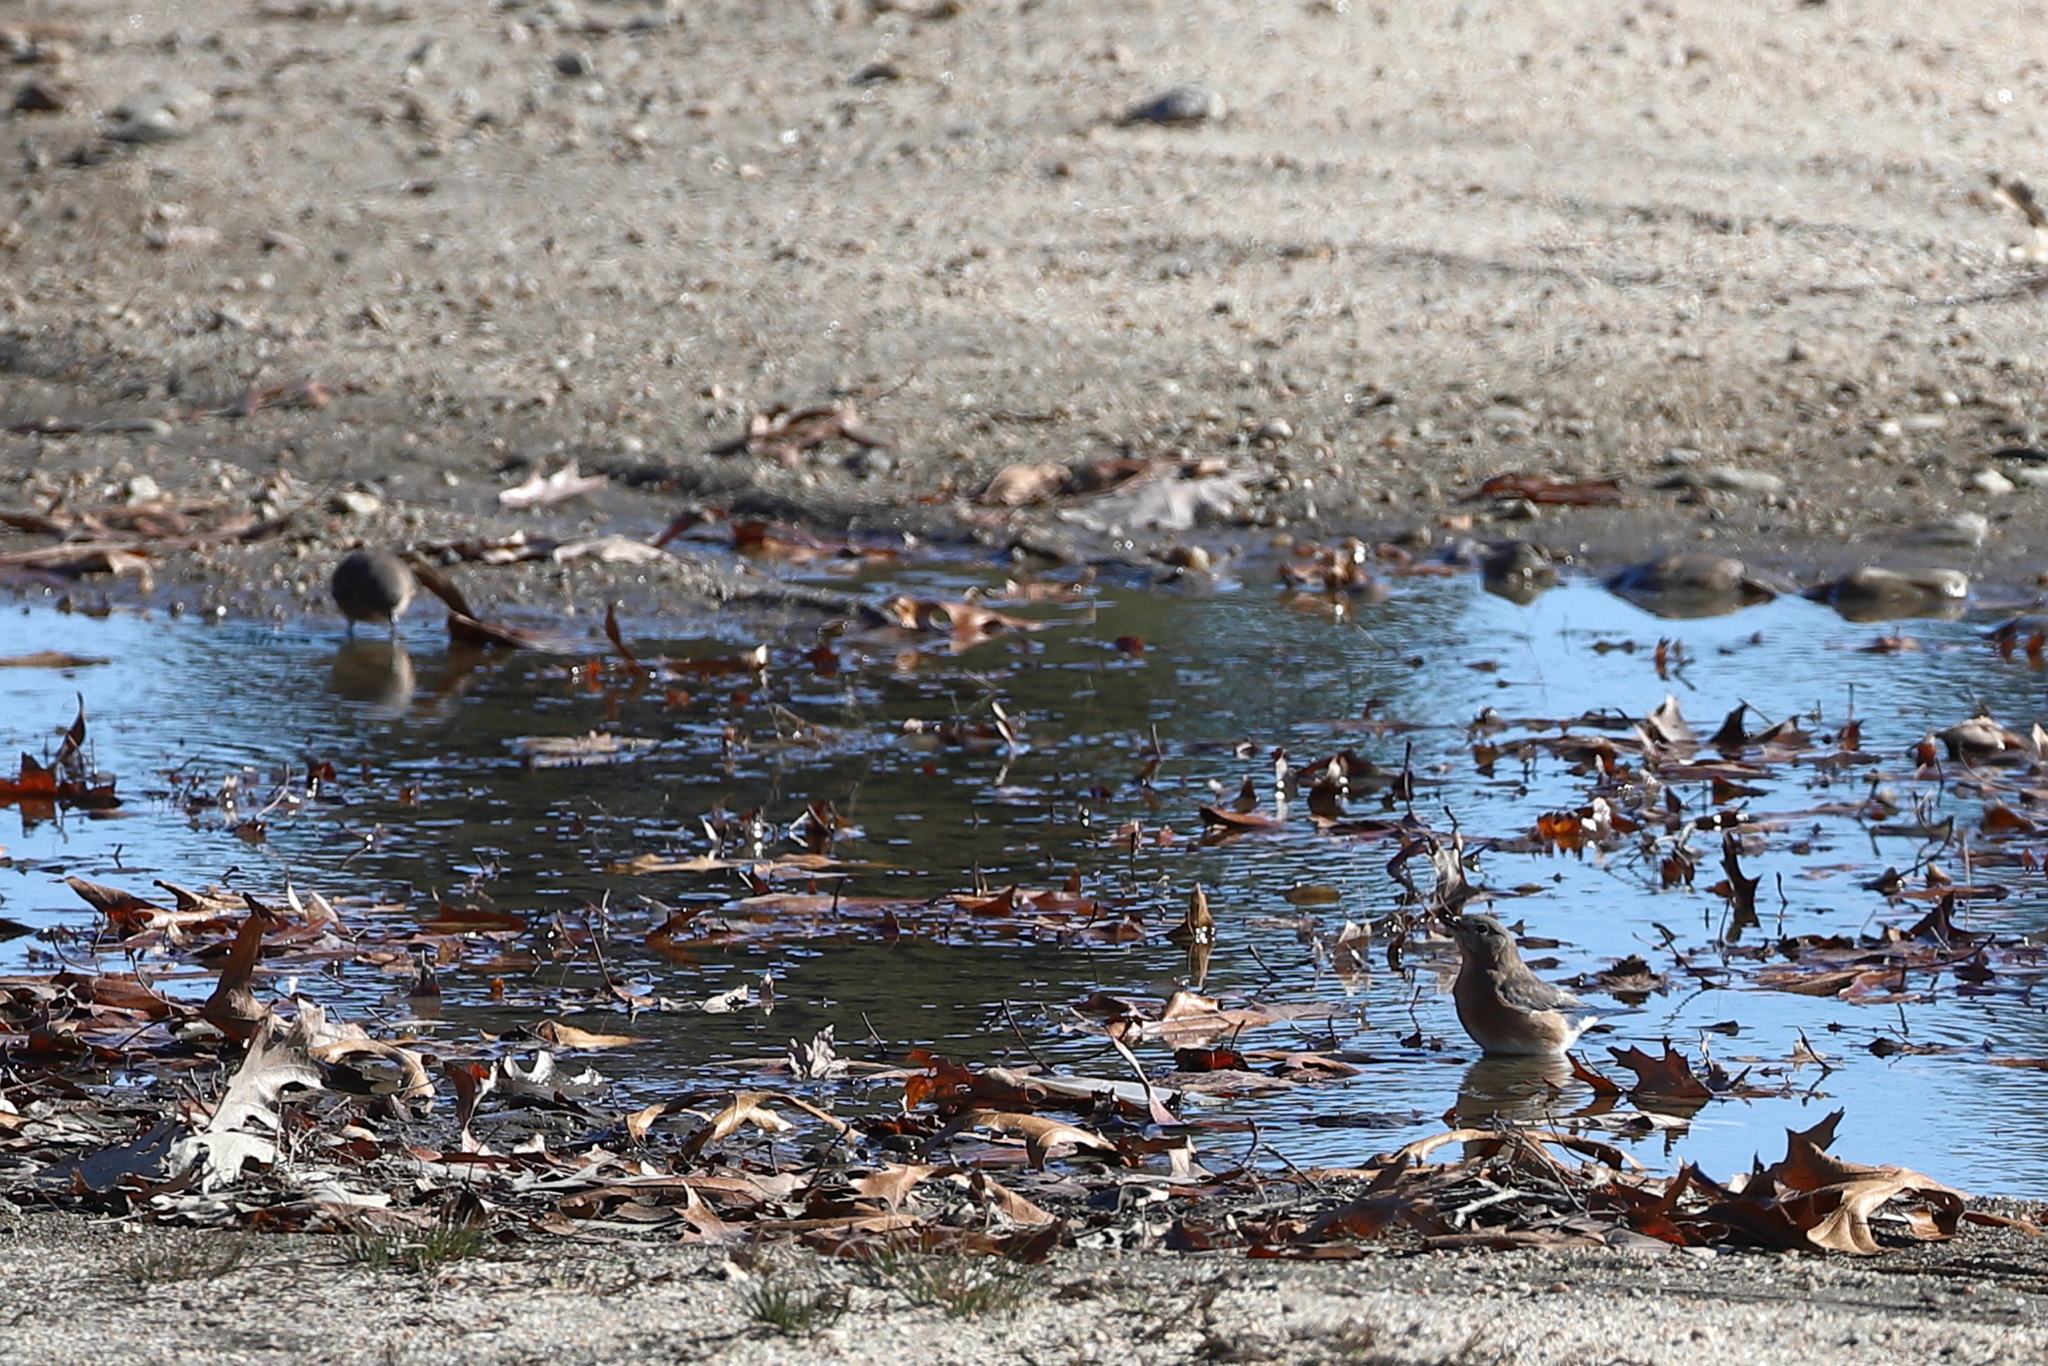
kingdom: Animalia
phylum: Chordata
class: Aves
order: Passeriformes
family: Turdidae
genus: Sialia
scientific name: Sialia sialis
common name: Eastern bluebird
